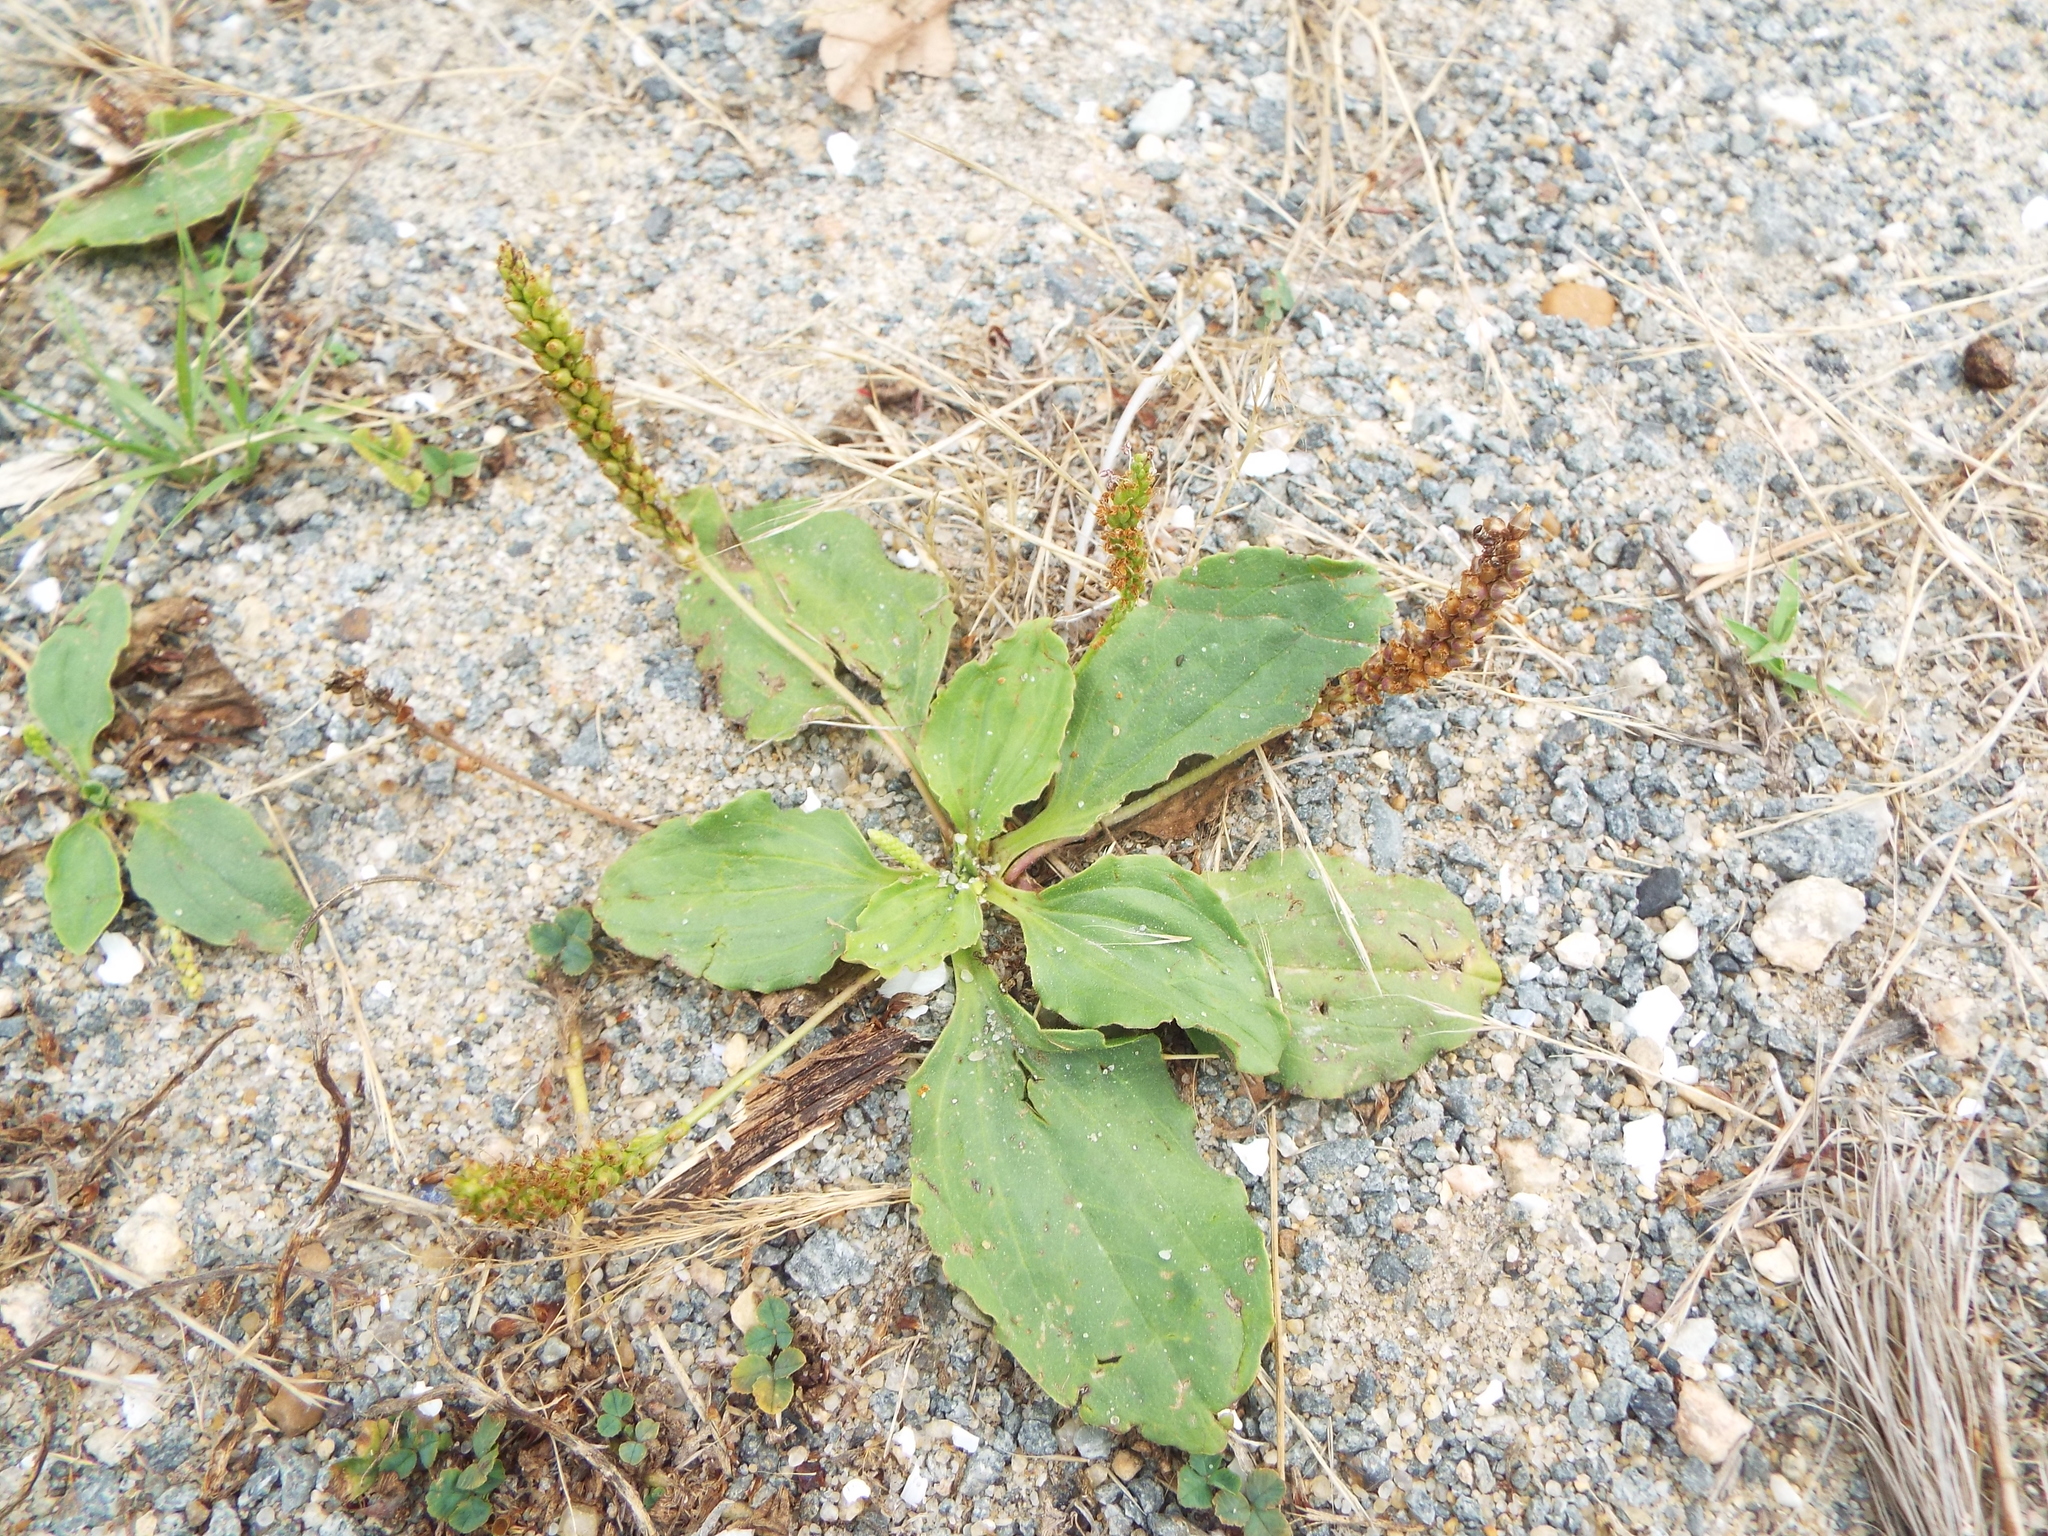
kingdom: Plantae
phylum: Tracheophyta
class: Magnoliopsida
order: Lamiales
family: Plantaginaceae
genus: Plantago
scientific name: Plantago major
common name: Common plantain
